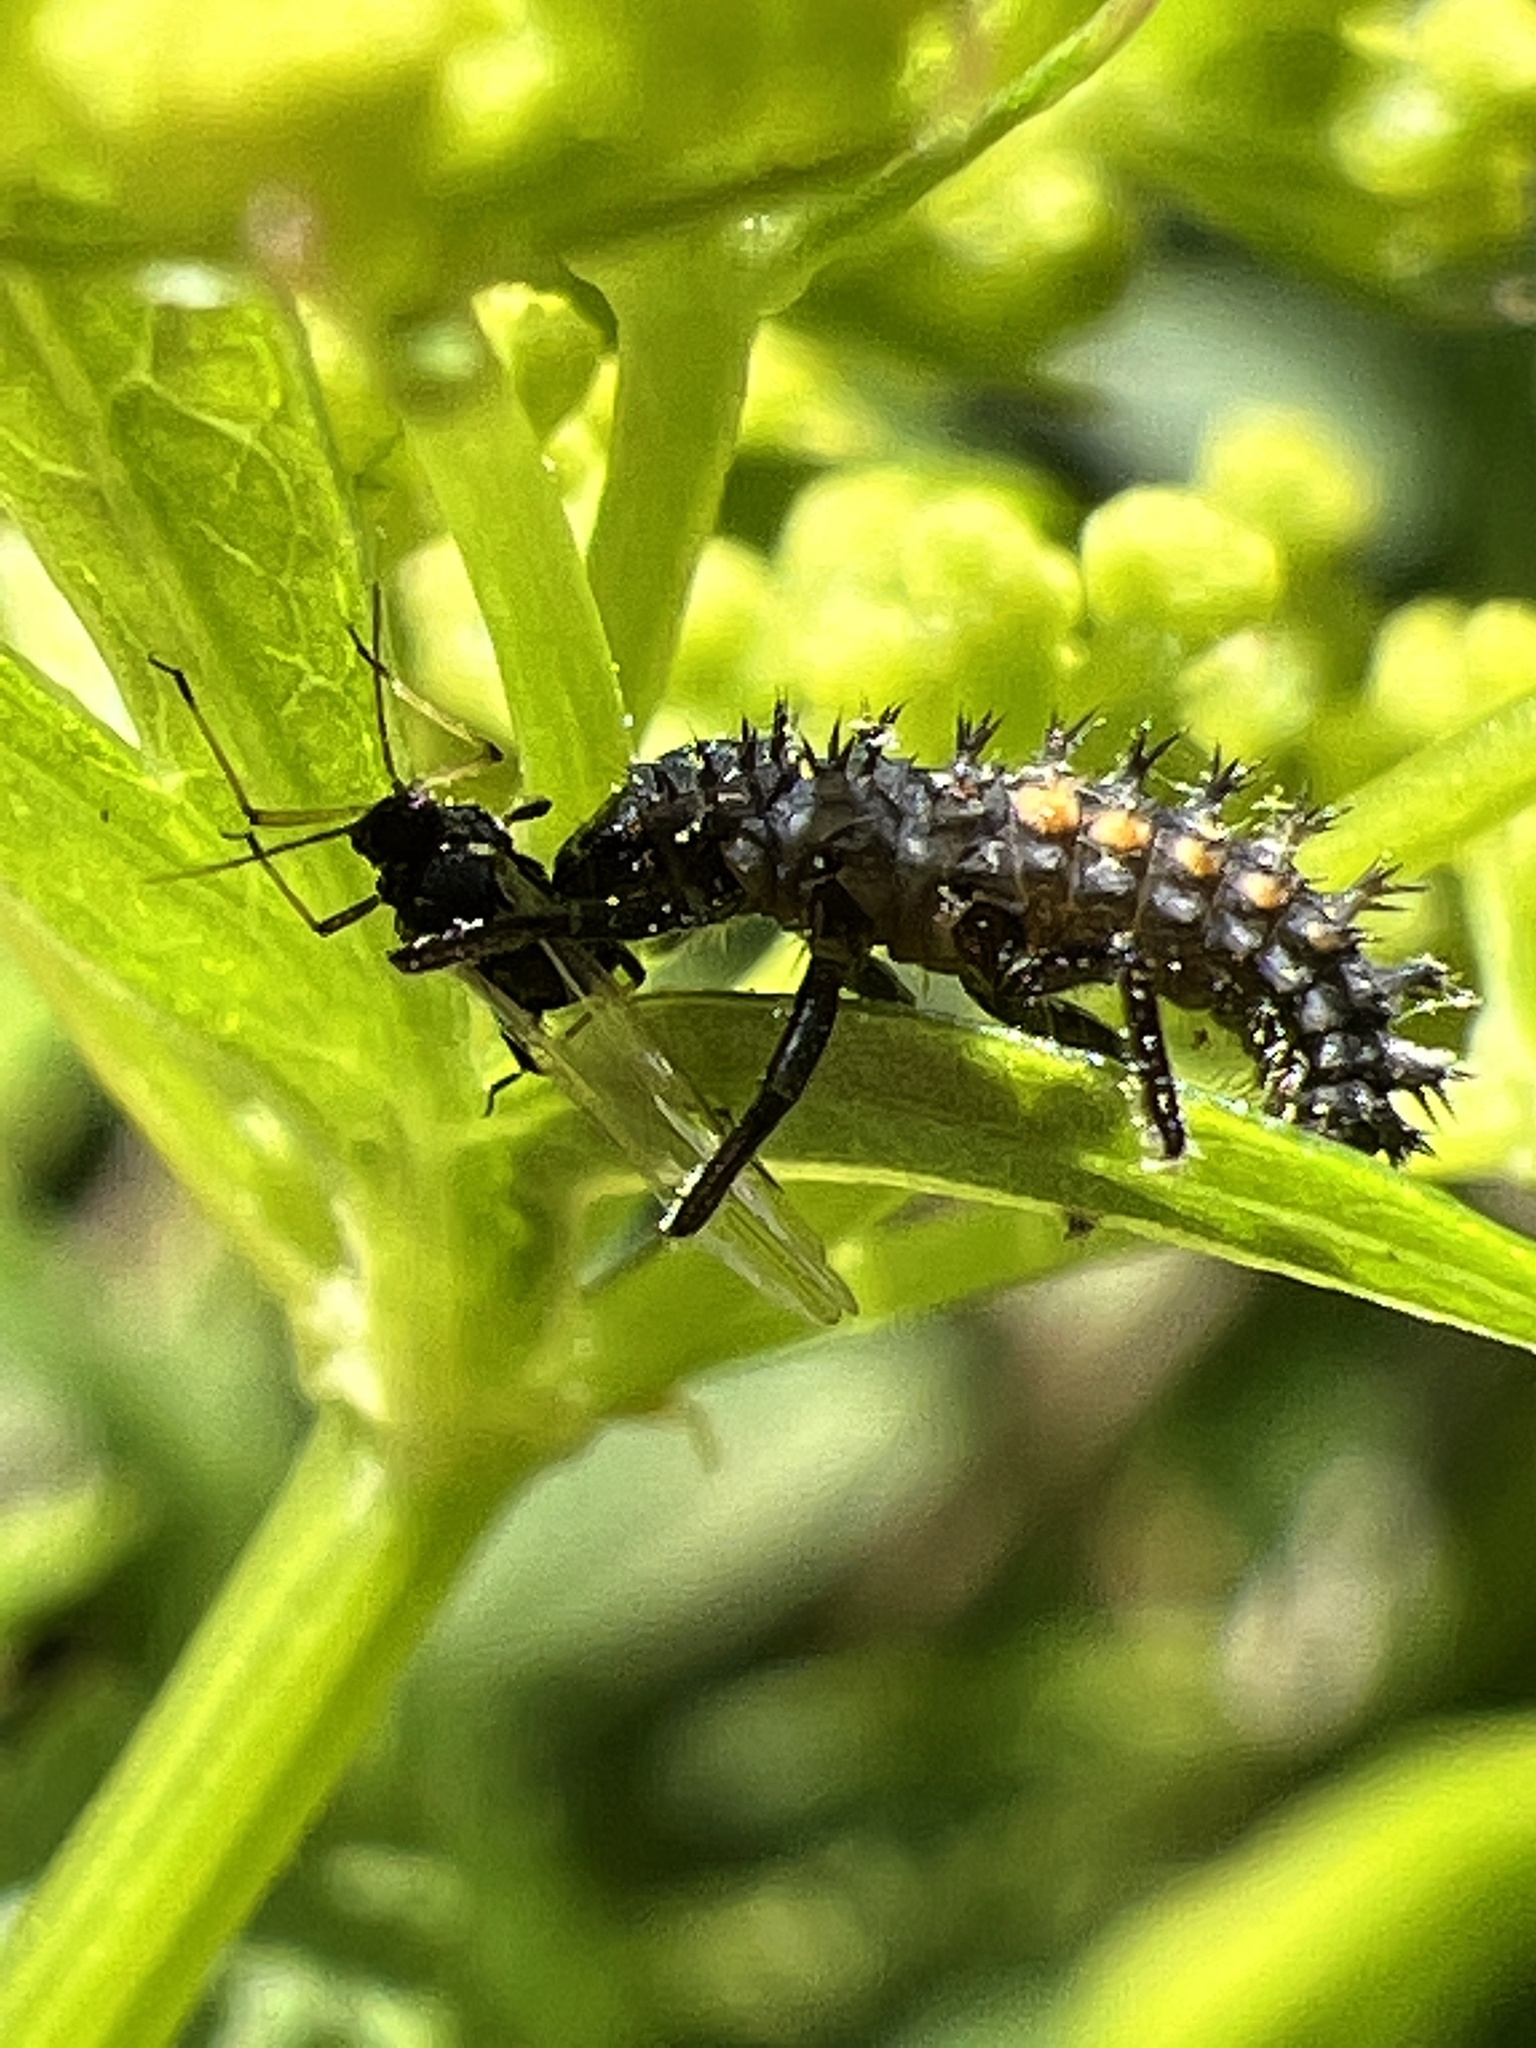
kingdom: Animalia
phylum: Arthropoda
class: Insecta
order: Coleoptera
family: Coccinellidae
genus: Harmonia
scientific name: Harmonia axyridis
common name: Harlequin ladybird
